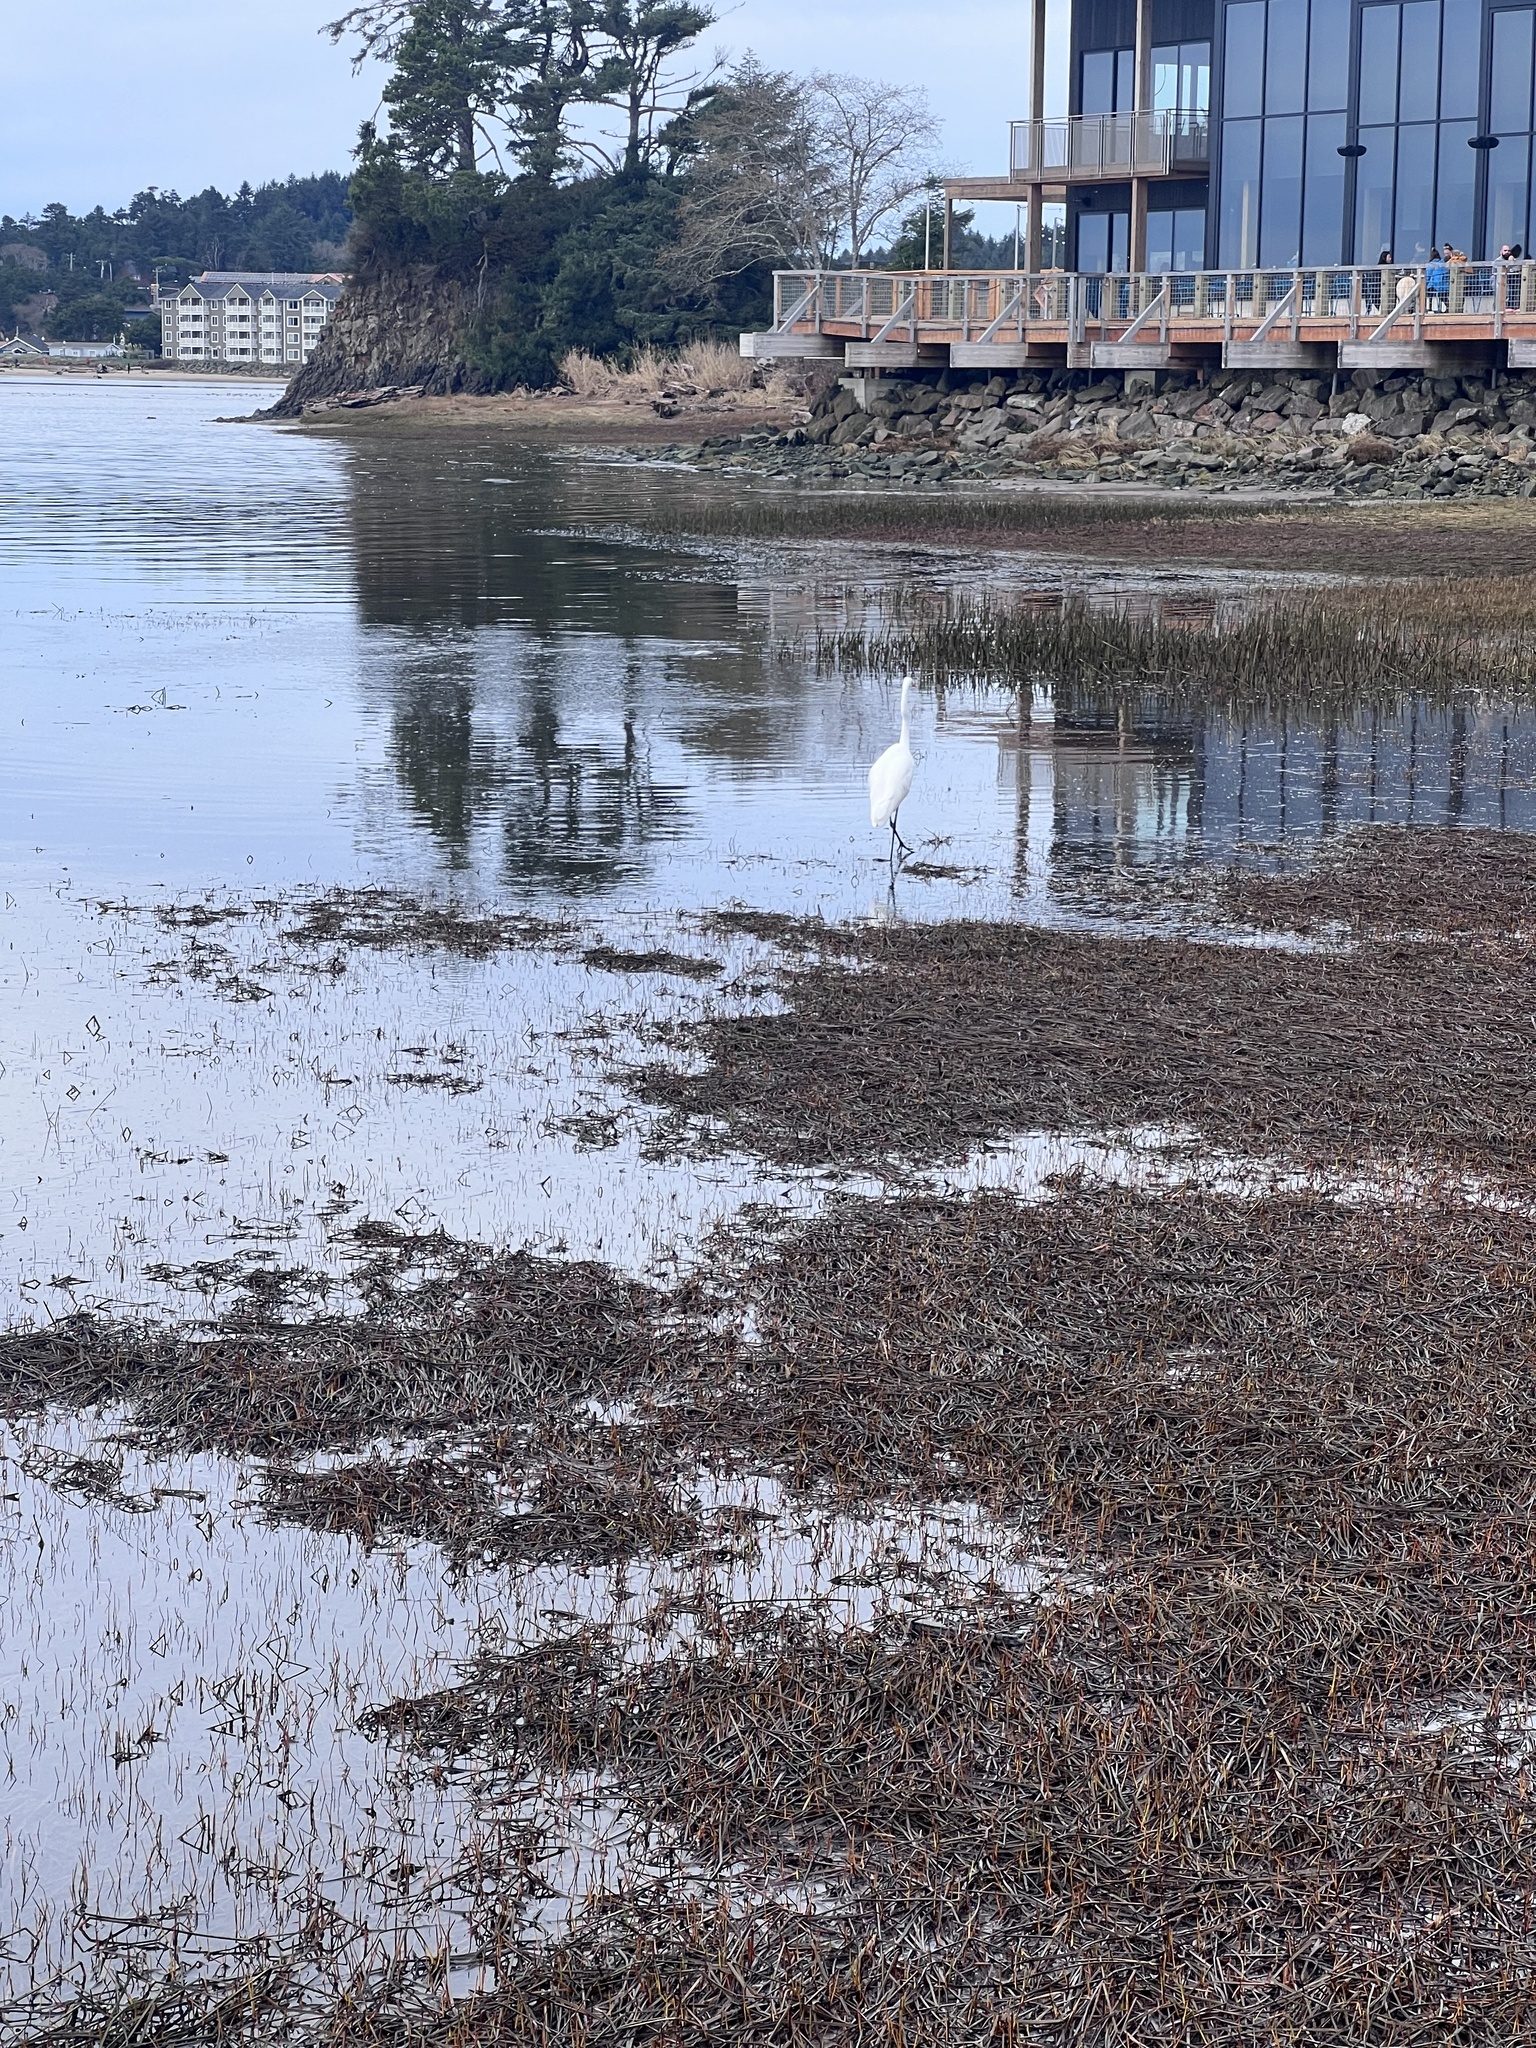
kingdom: Animalia
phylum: Chordata
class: Aves
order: Pelecaniformes
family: Ardeidae
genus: Ardea
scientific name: Ardea alba
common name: Great egret
